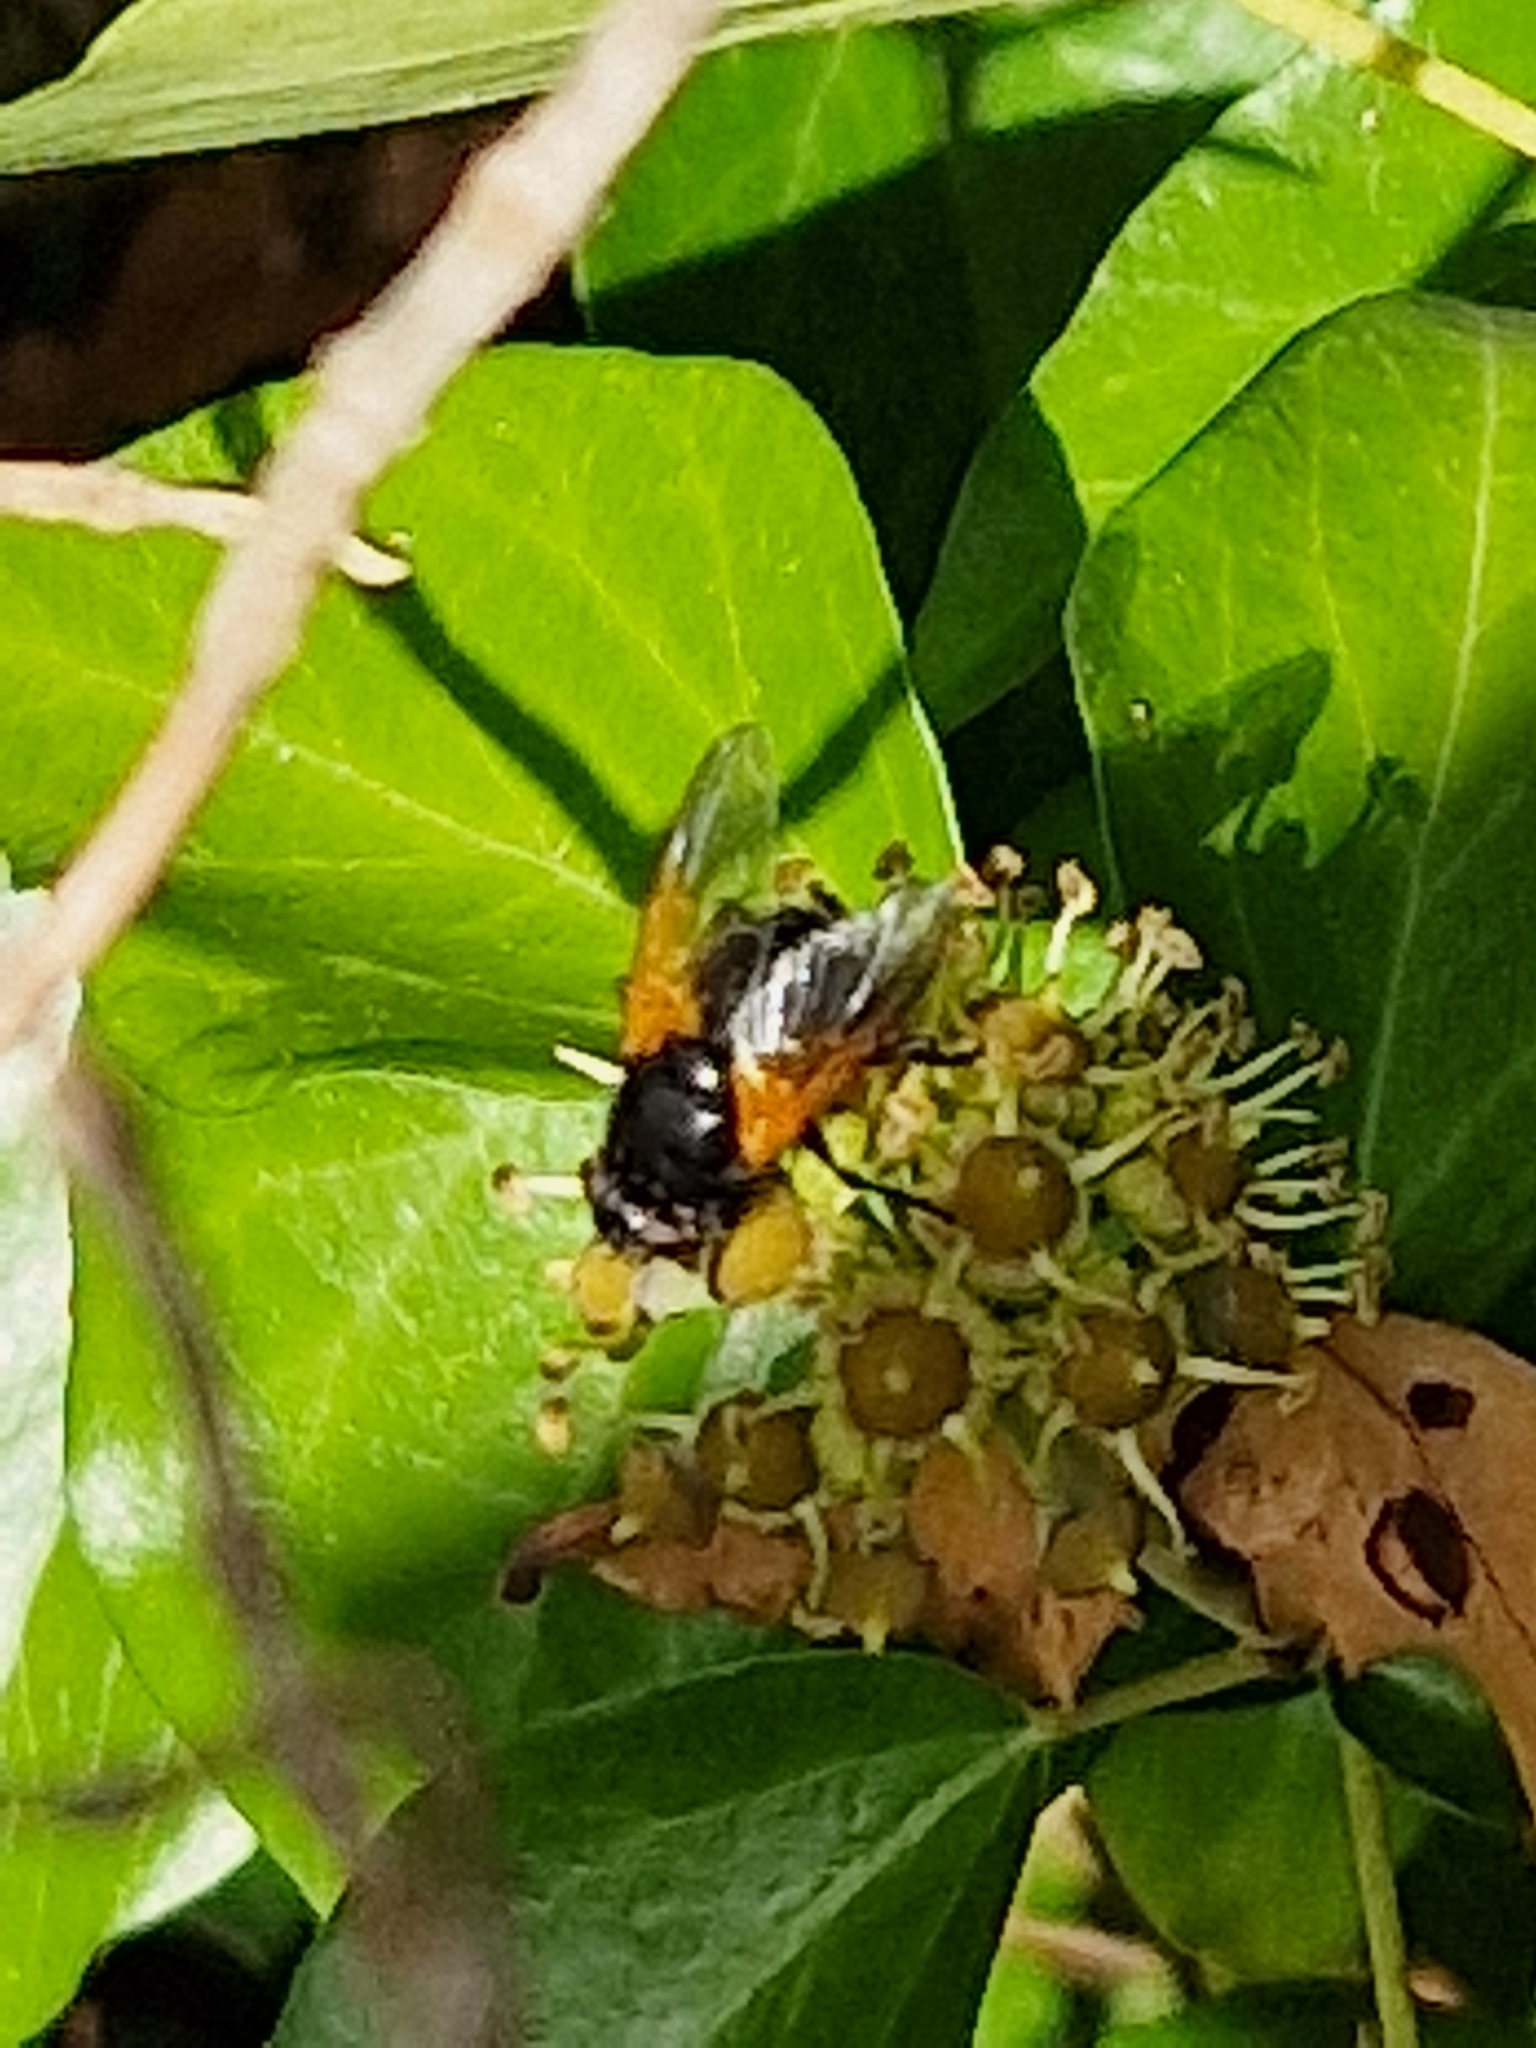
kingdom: Animalia
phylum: Arthropoda
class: Insecta
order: Diptera
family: Muscidae
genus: Mesembrina
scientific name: Mesembrina meridiana
